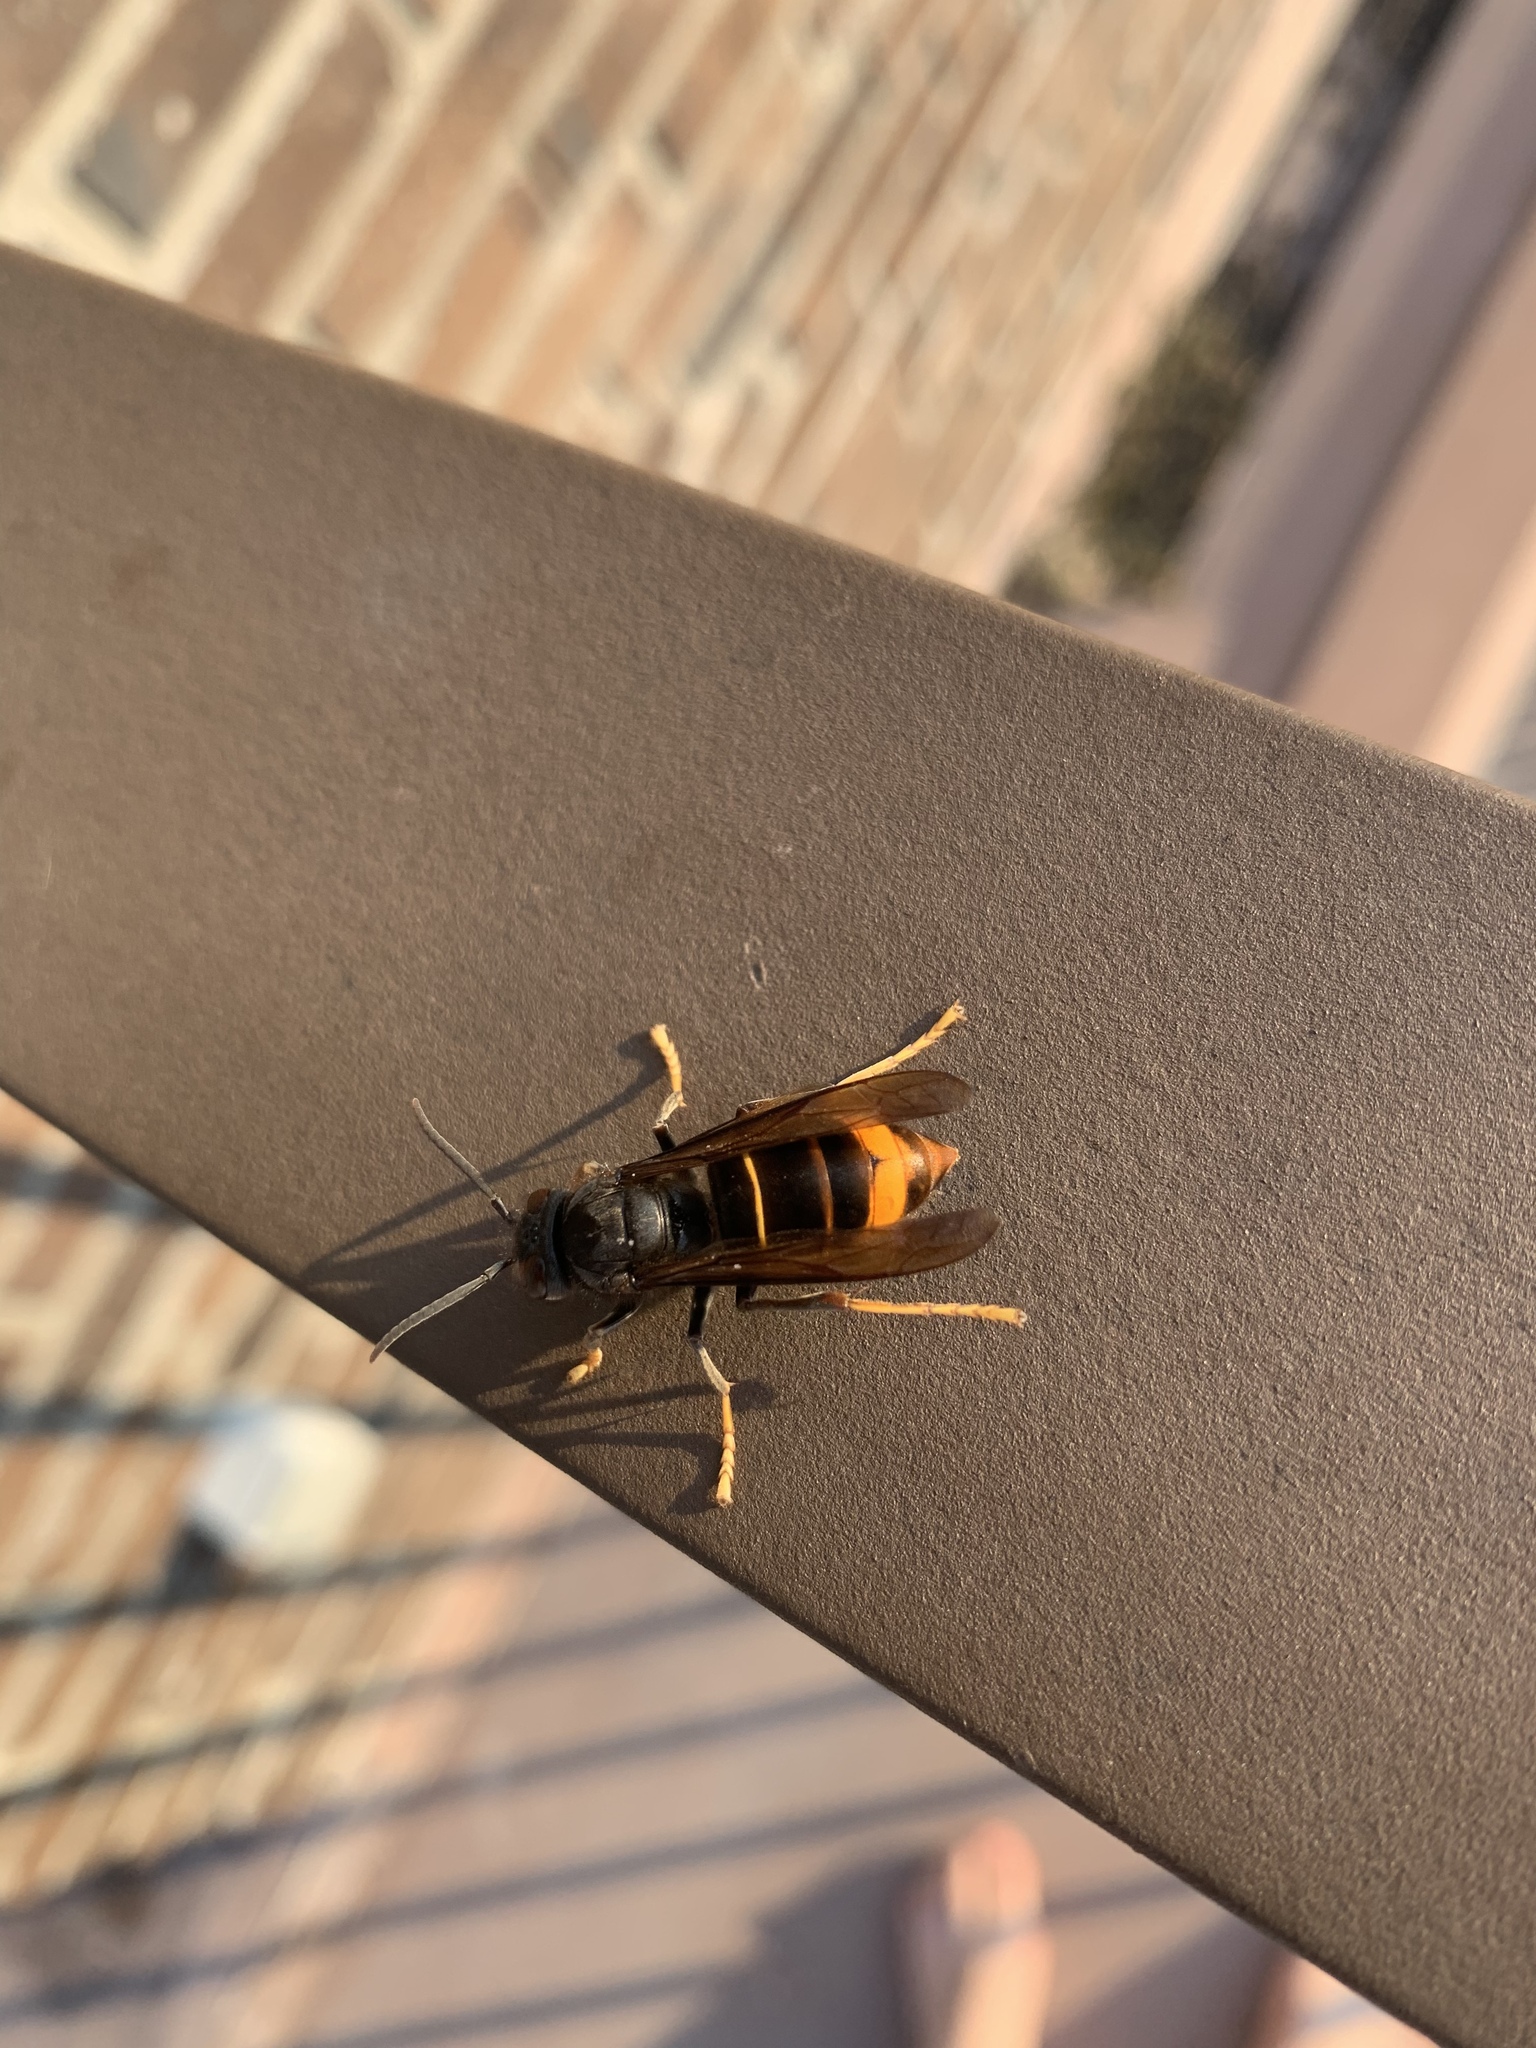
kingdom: Animalia
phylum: Arthropoda
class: Insecta
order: Hymenoptera
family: Vespidae
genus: Vespa
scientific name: Vespa velutina
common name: Asian hornet
